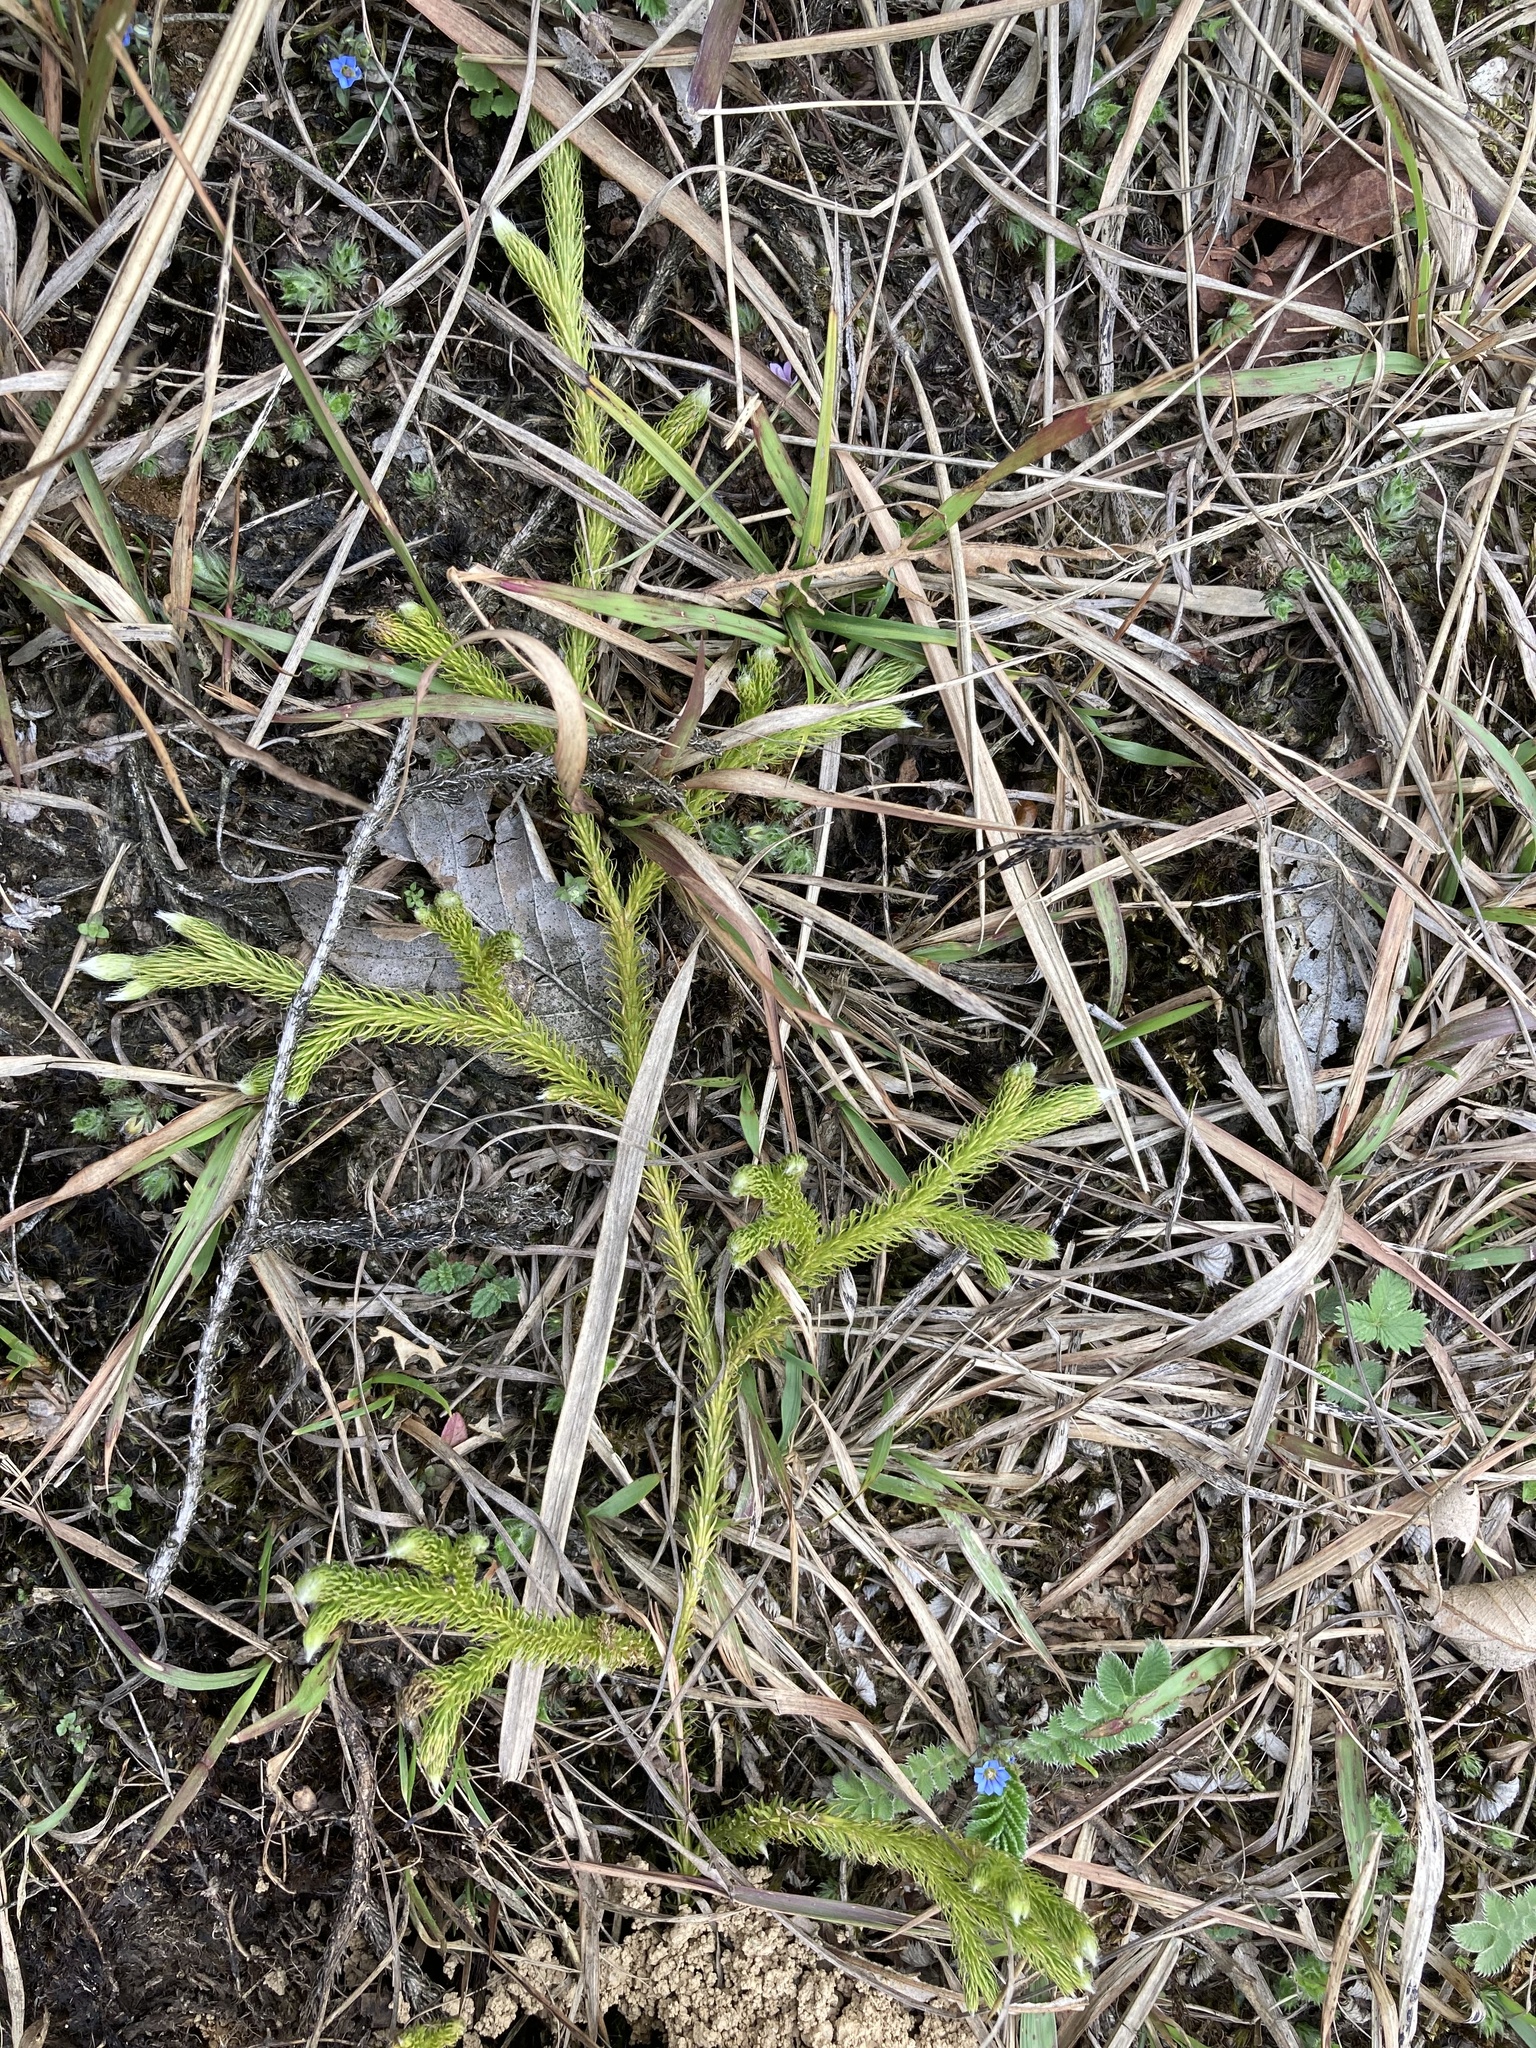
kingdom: Plantae
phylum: Tracheophyta
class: Lycopodiopsida
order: Lycopodiales
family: Lycopodiaceae
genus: Lycopodium
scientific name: Lycopodium japonicum
